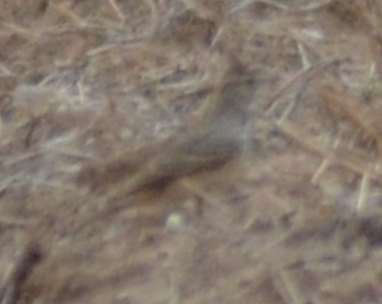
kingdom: Animalia
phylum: Chordata
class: Aves
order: Passeriformes
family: Alaudidae
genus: Galerida
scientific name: Galerida cristata
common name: Crested lark
